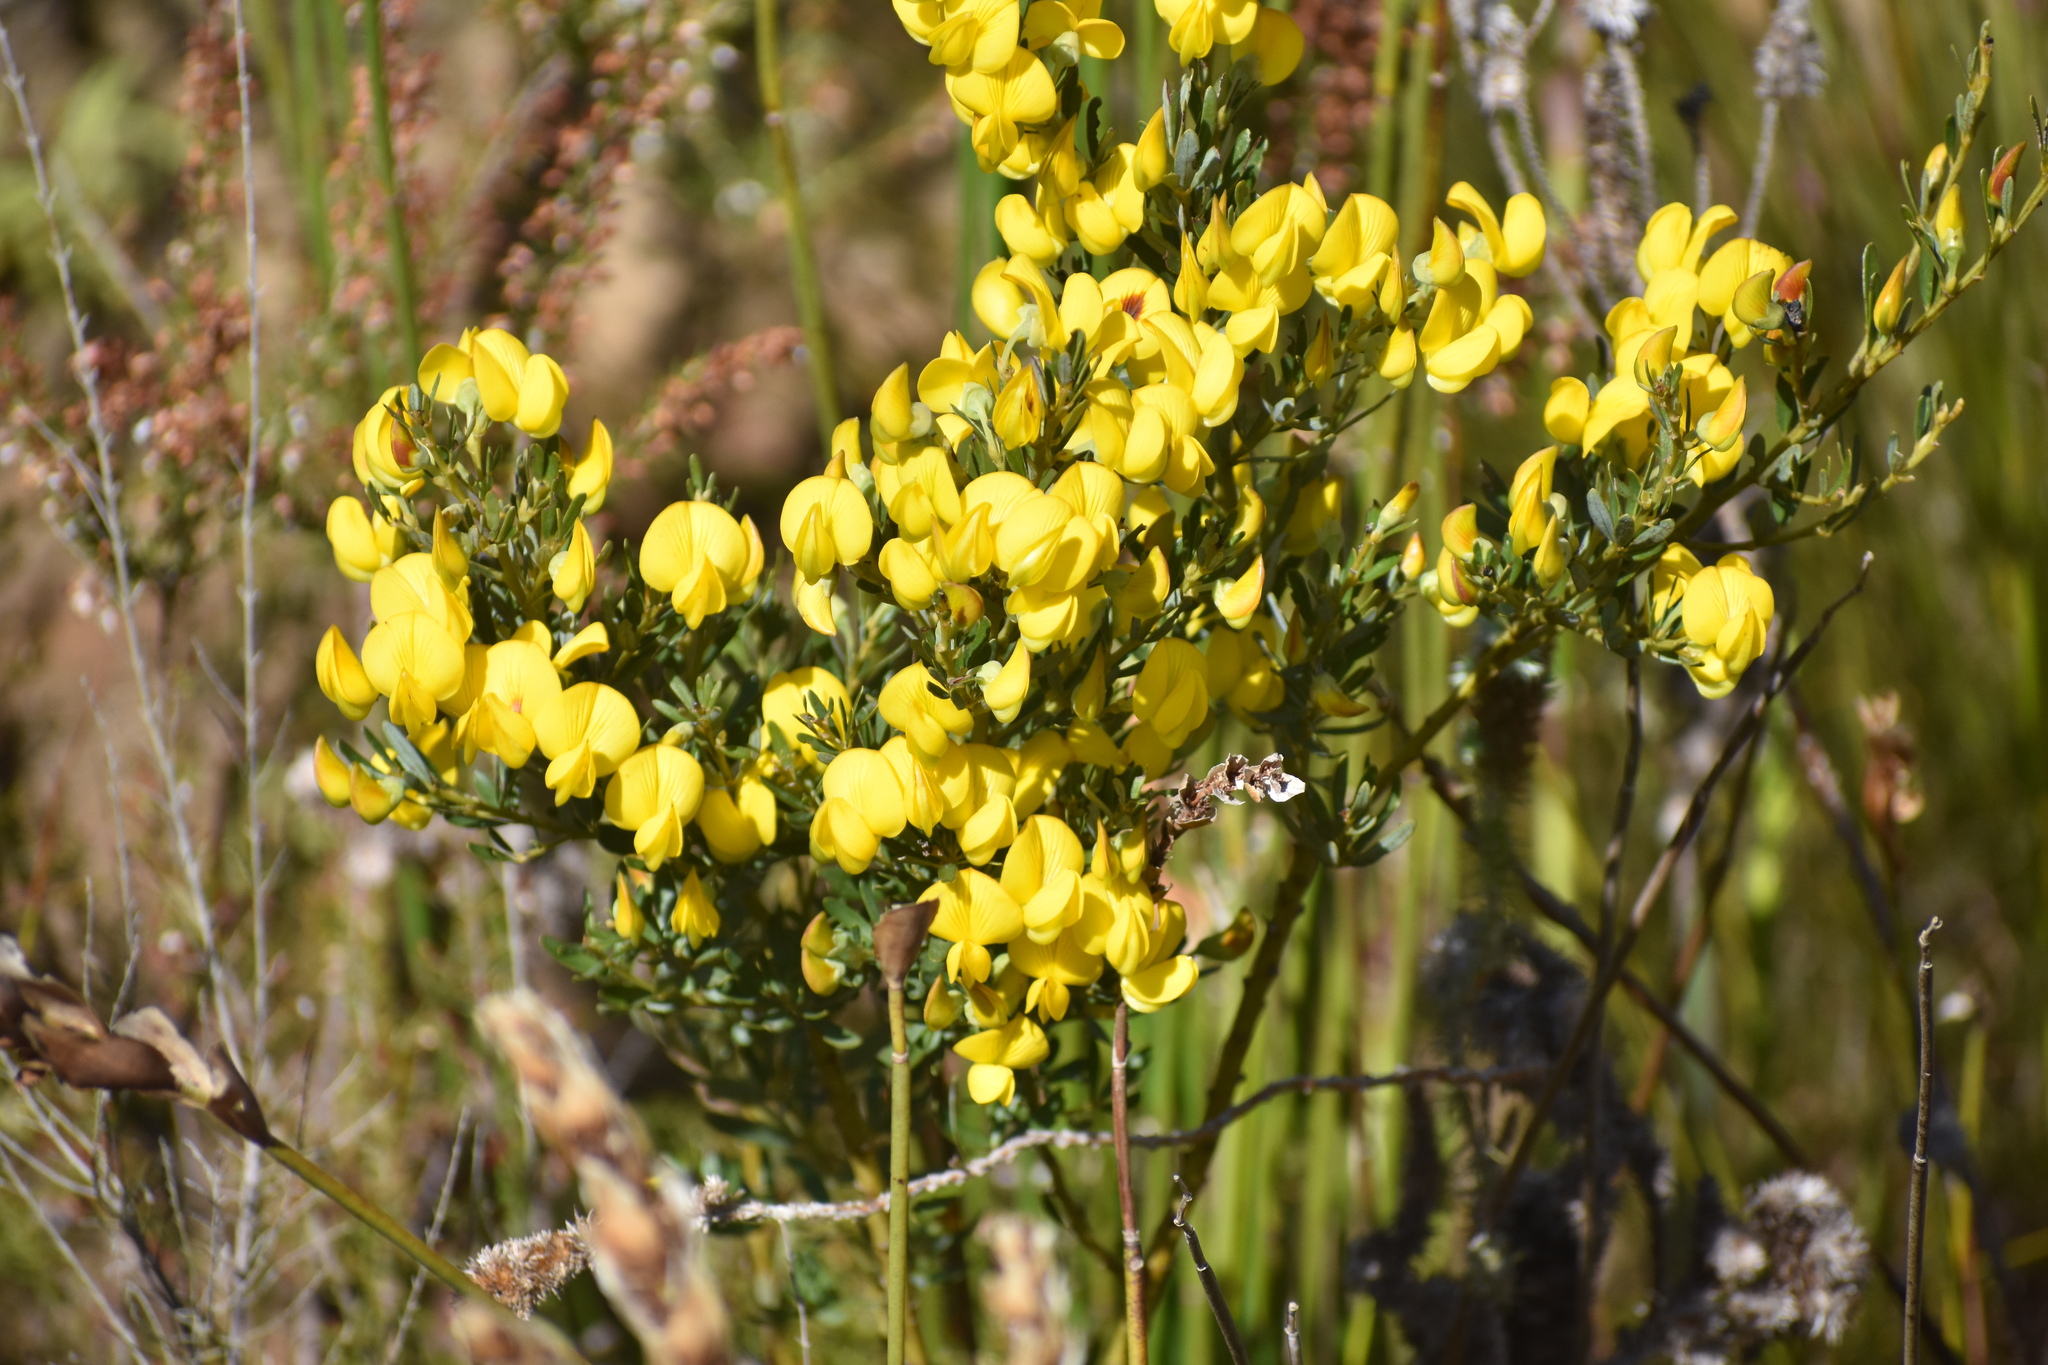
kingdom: Plantae
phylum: Tracheophyta
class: Magnoliopsida
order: Fabales
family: Fabaceae
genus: Cyclopia
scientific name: Cyclopia subternata
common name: Honeybush tea
